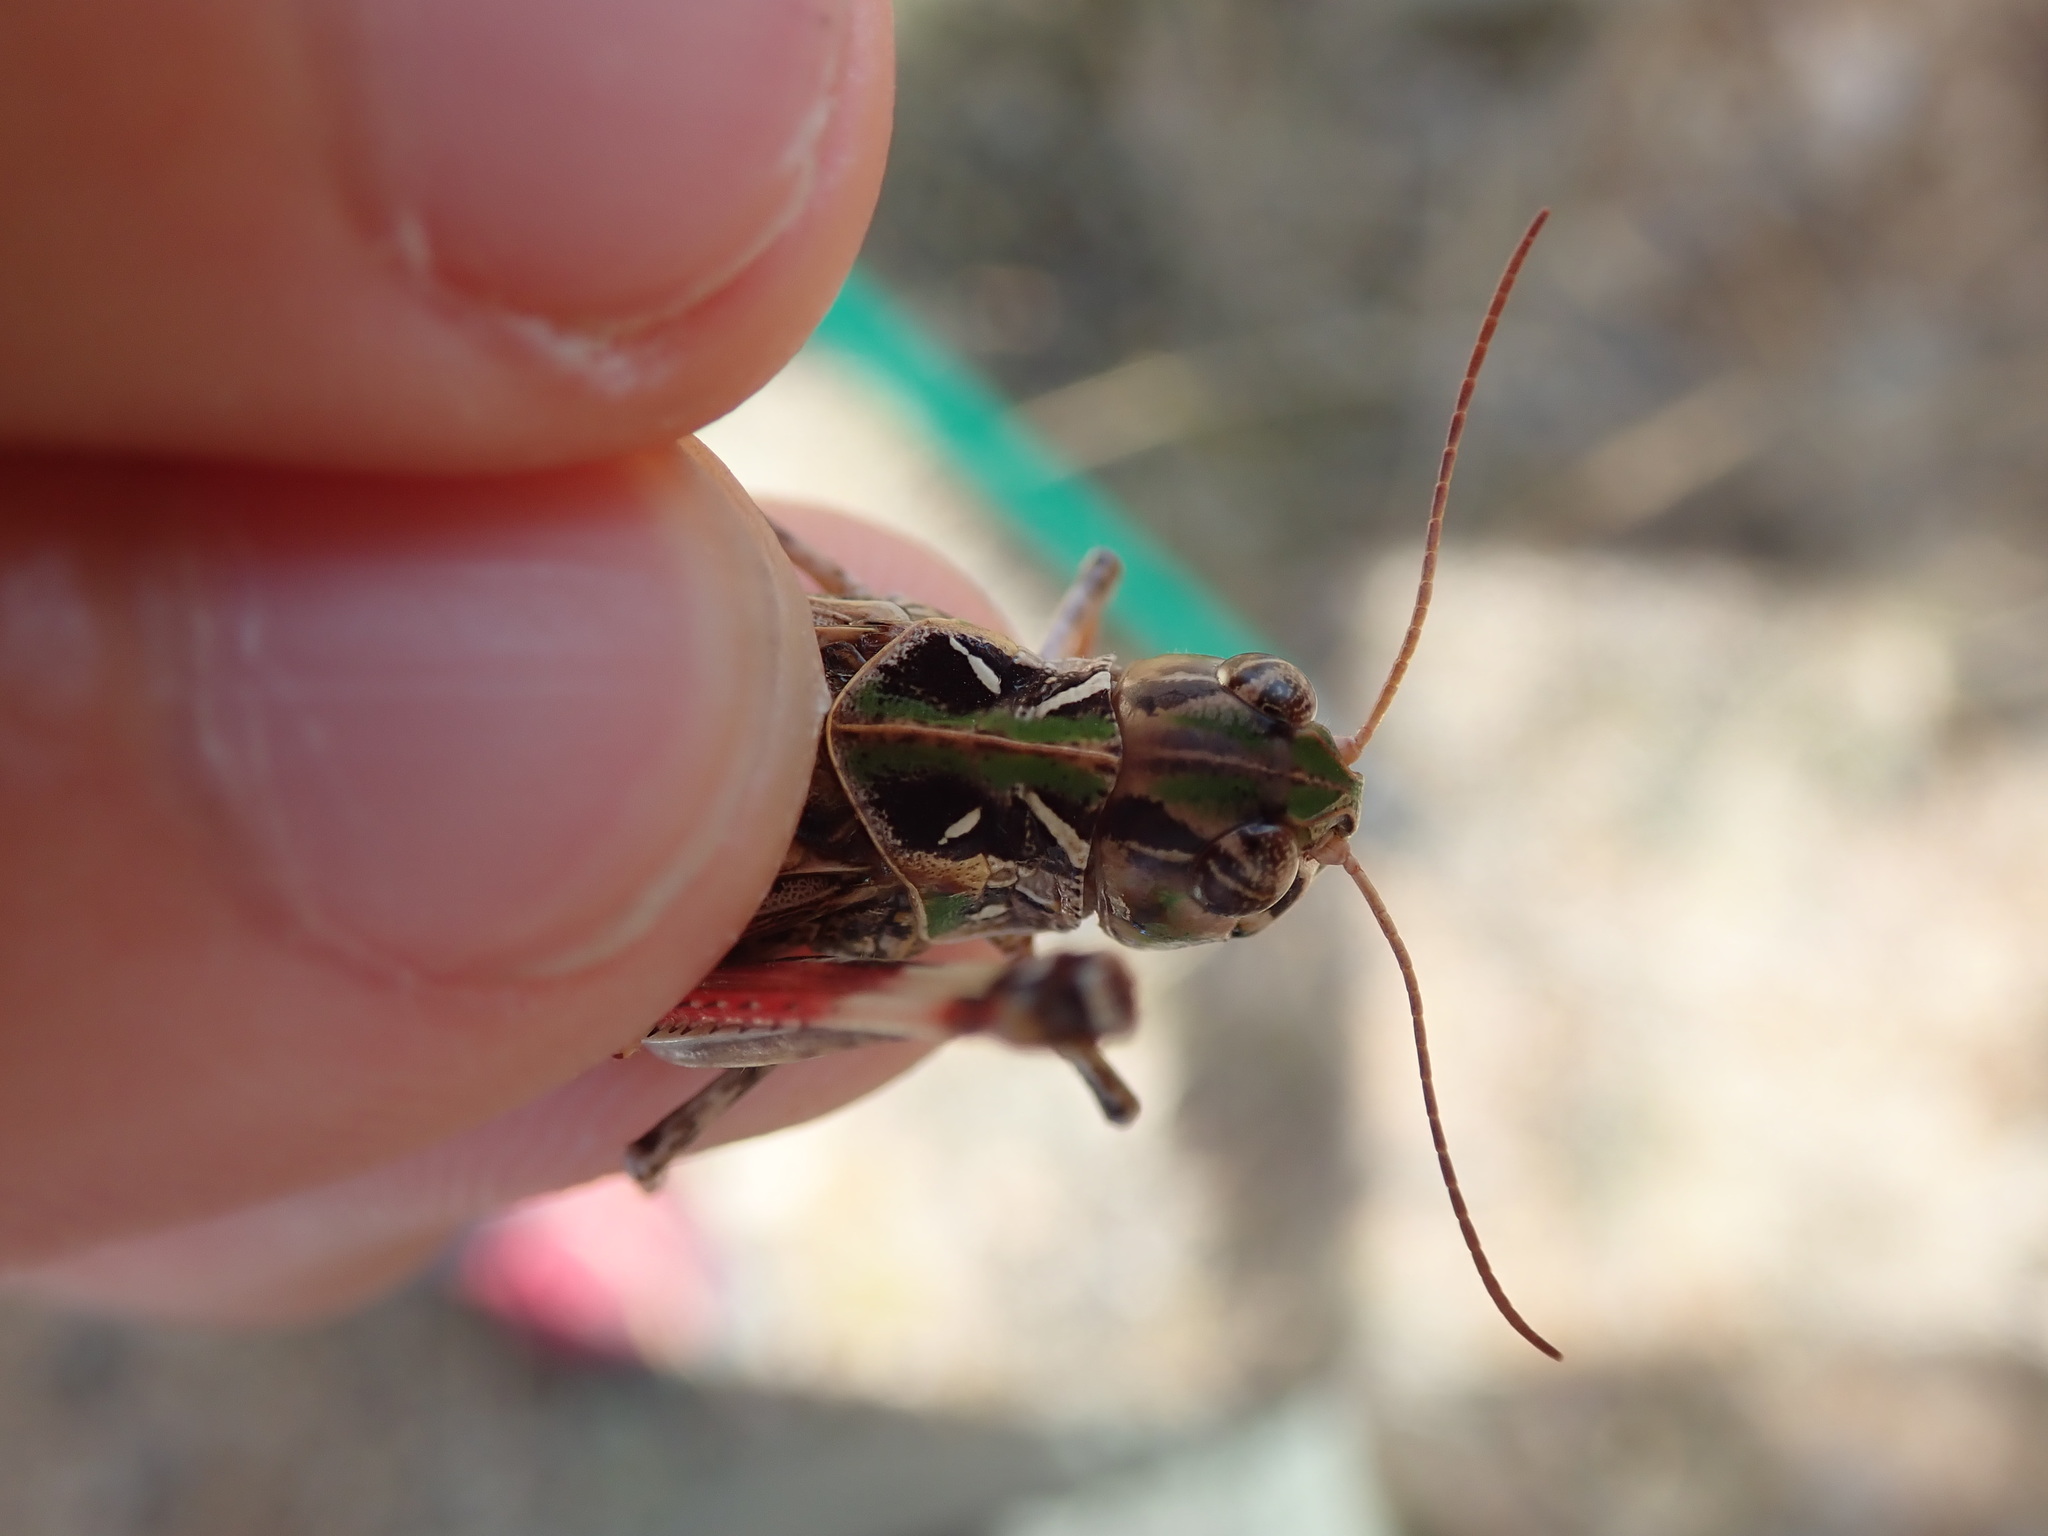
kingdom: Animalia
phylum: Arthropoda
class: Insecta
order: Orthoptera
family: Acrididae
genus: Oedaleus
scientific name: Oedaleus decorus
